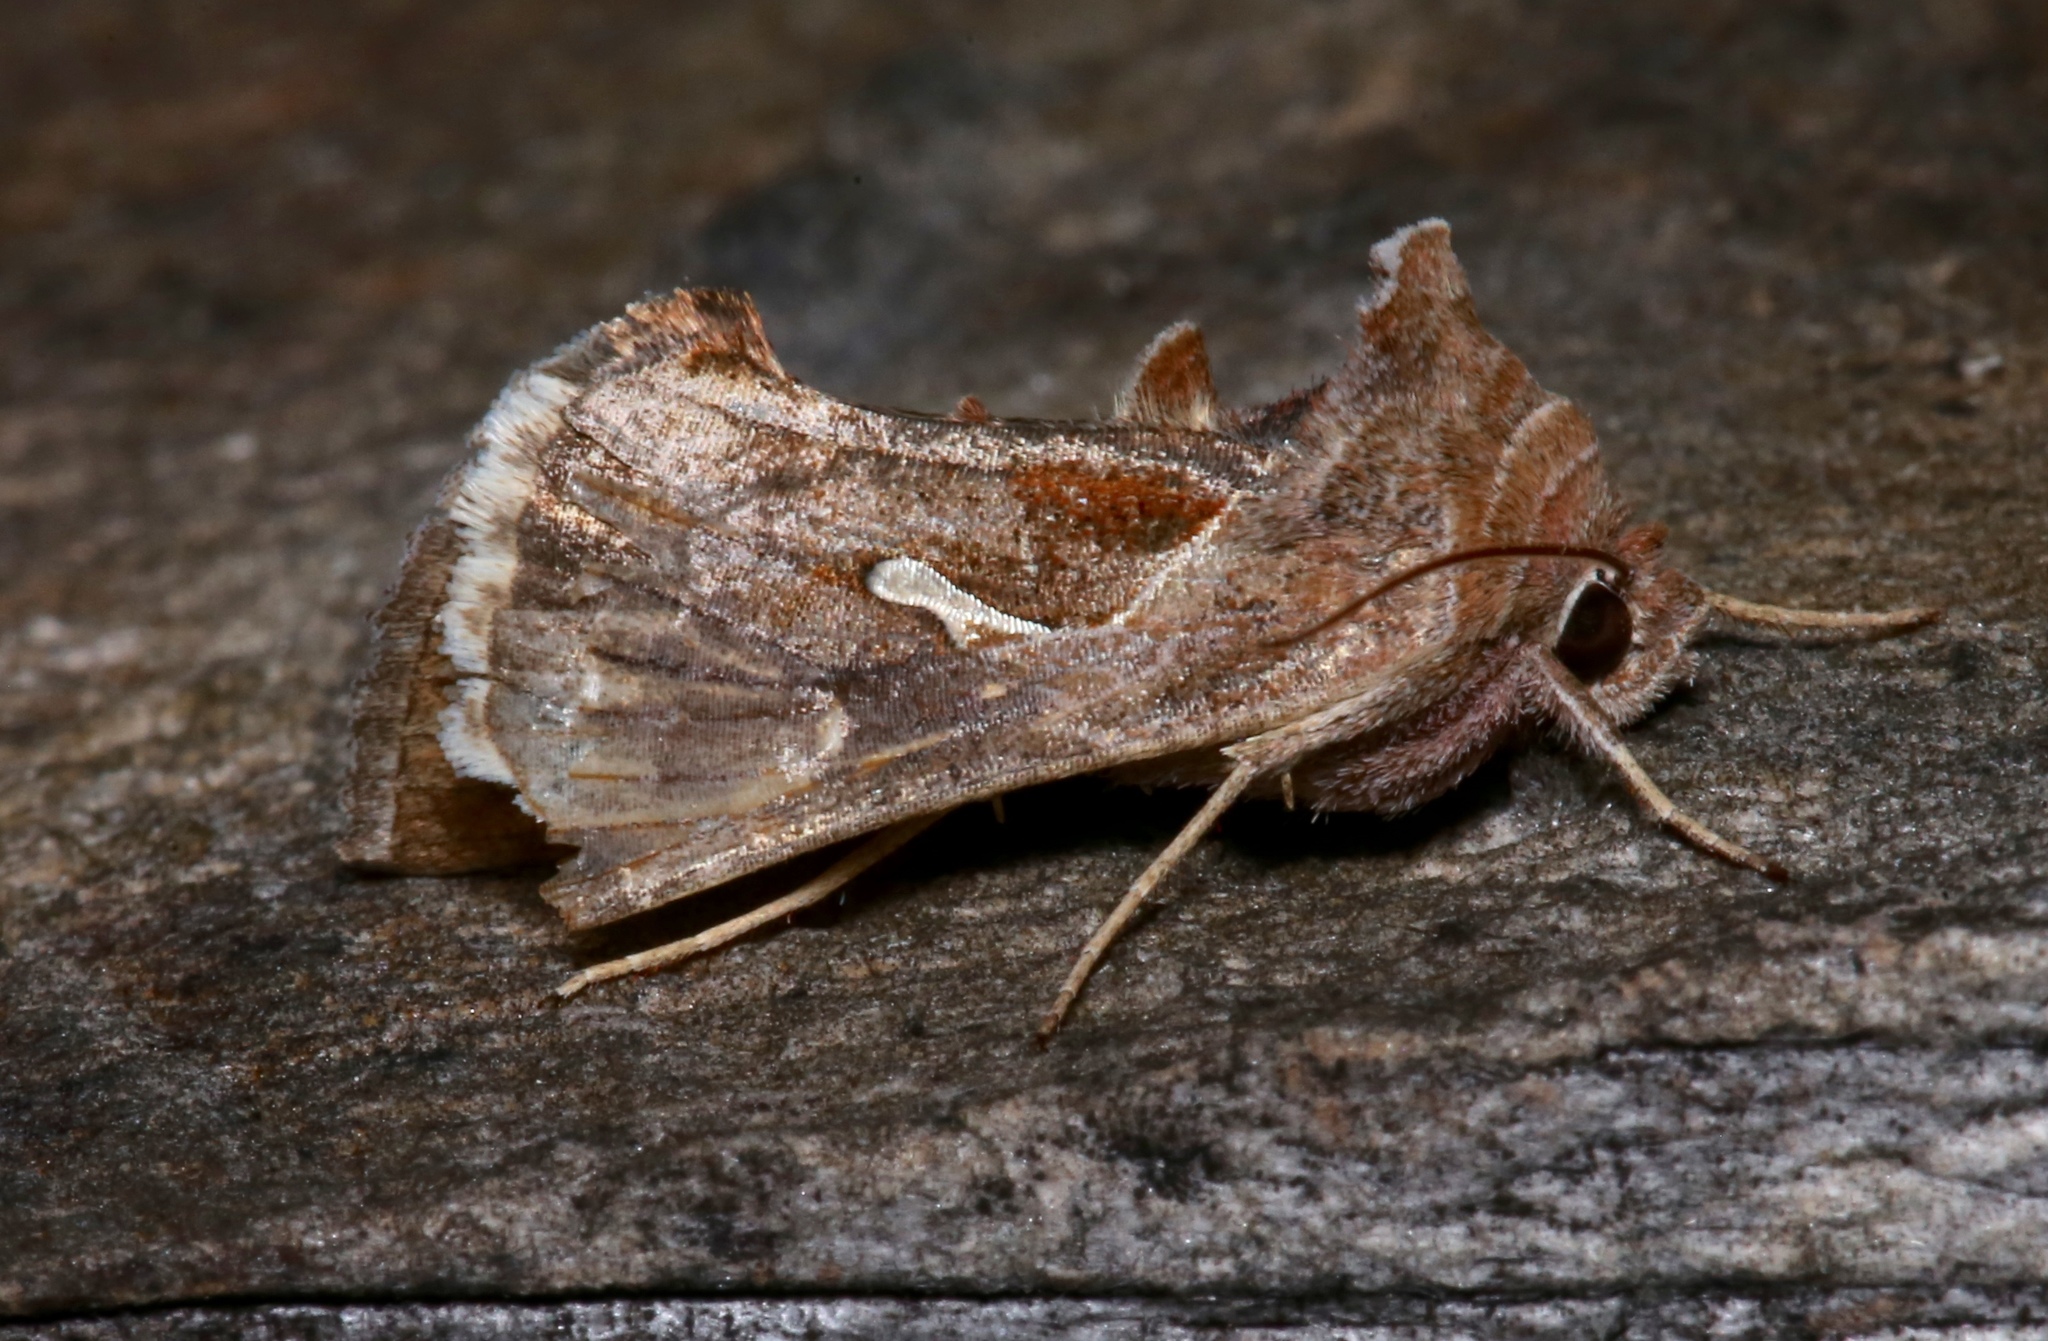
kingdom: Animalia
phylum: Arthropoda
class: Insecta
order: Lepidoptera
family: Noctuidae
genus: Anagrapha
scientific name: Anagrapha falcifera
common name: Celery looper
